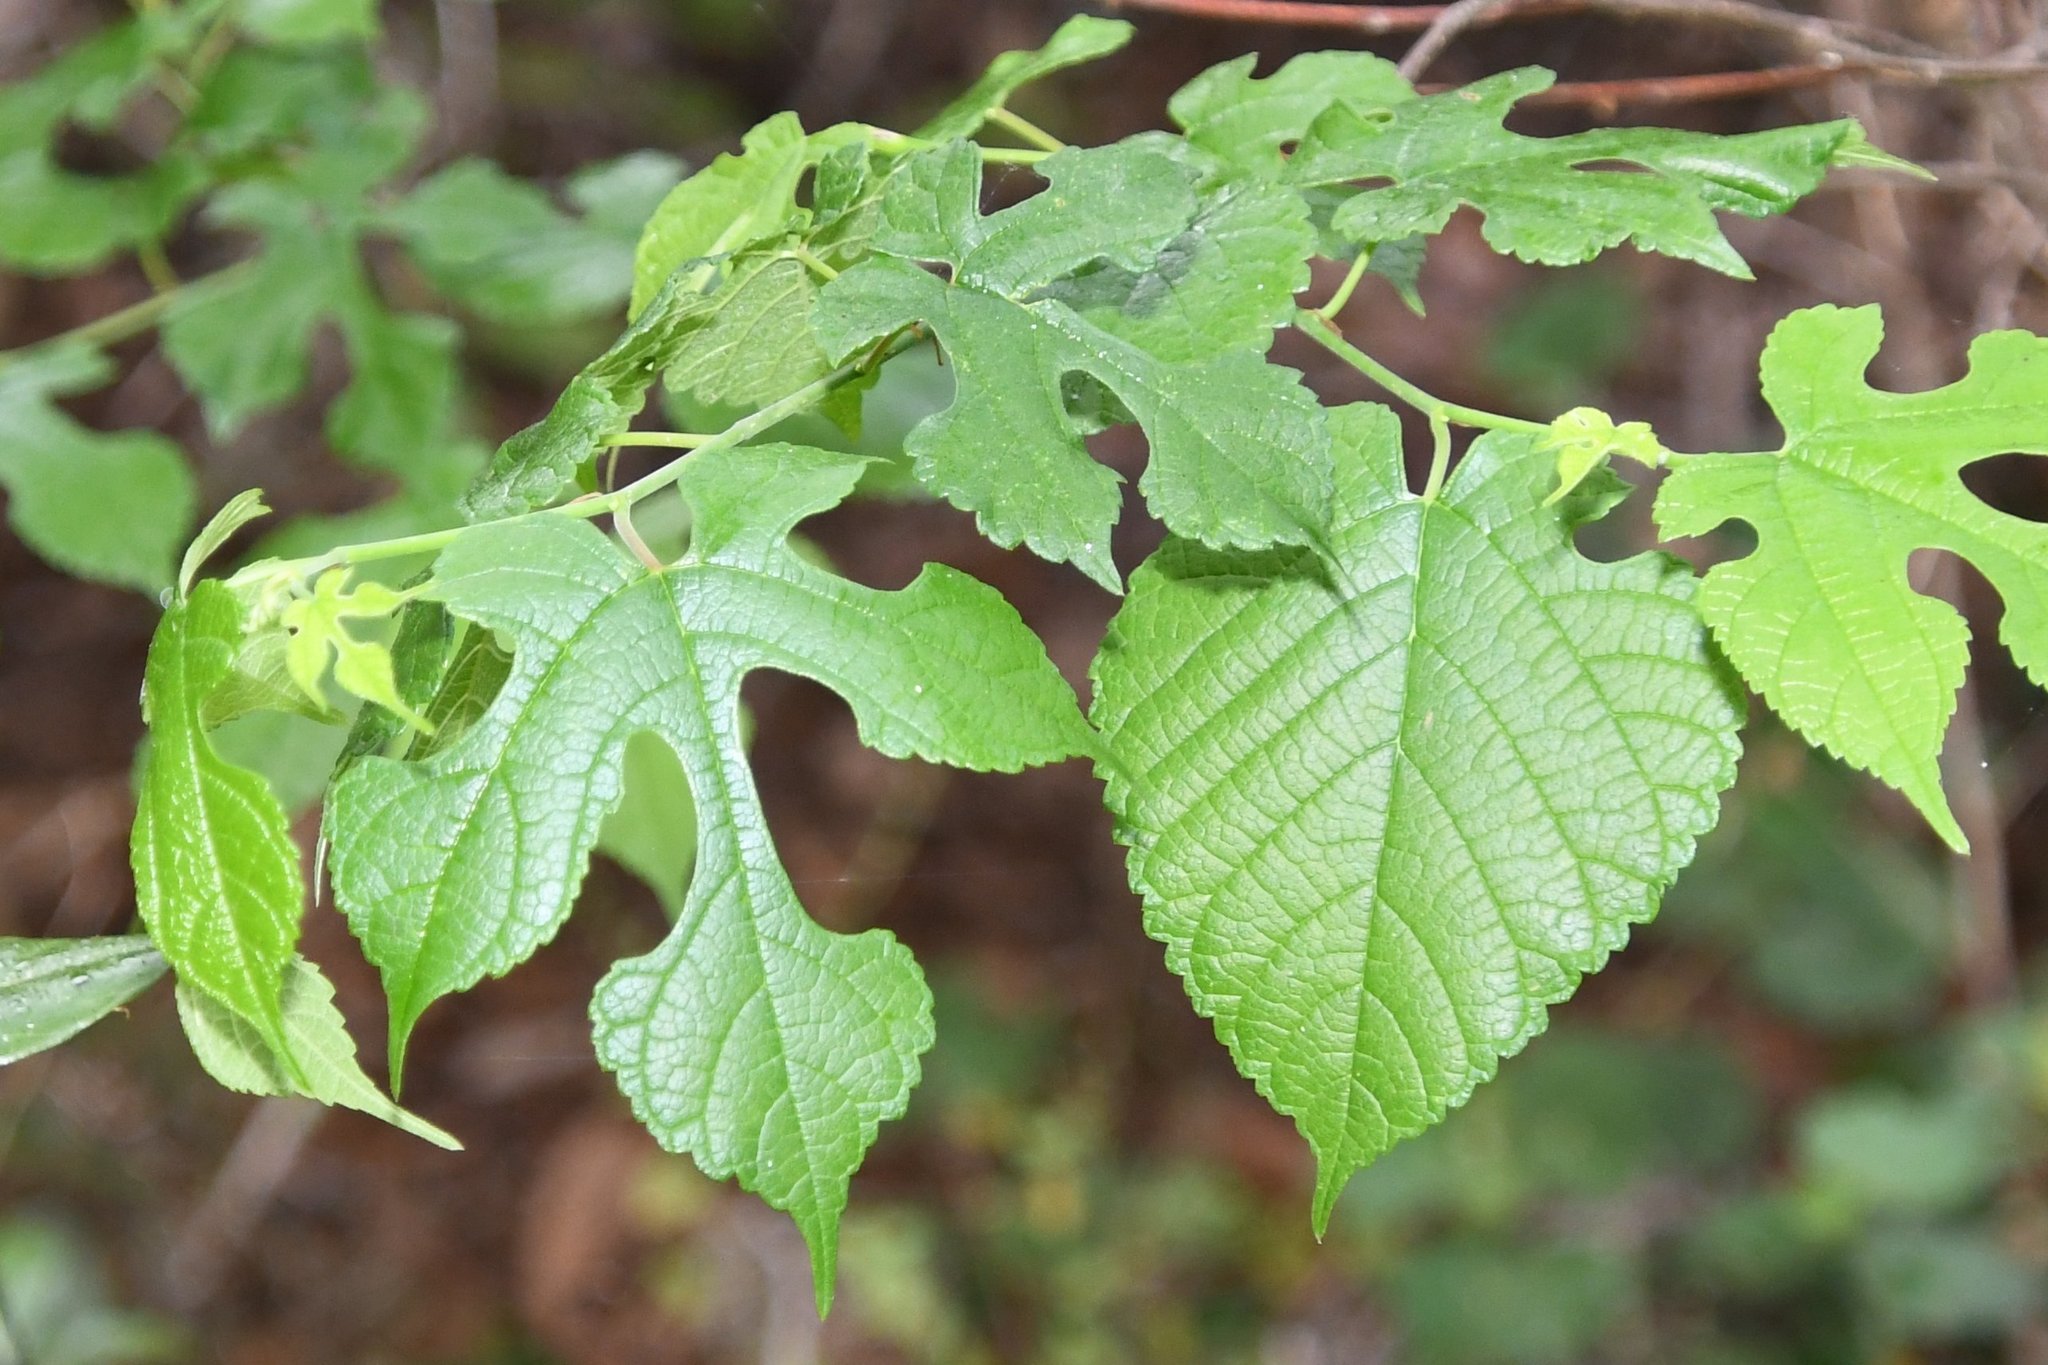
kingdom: Plantae
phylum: Tracheophyta
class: Magnoliopsida
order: Rosales
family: Moraceae
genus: Morus
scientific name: Morus rubra
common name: Red mulberry
